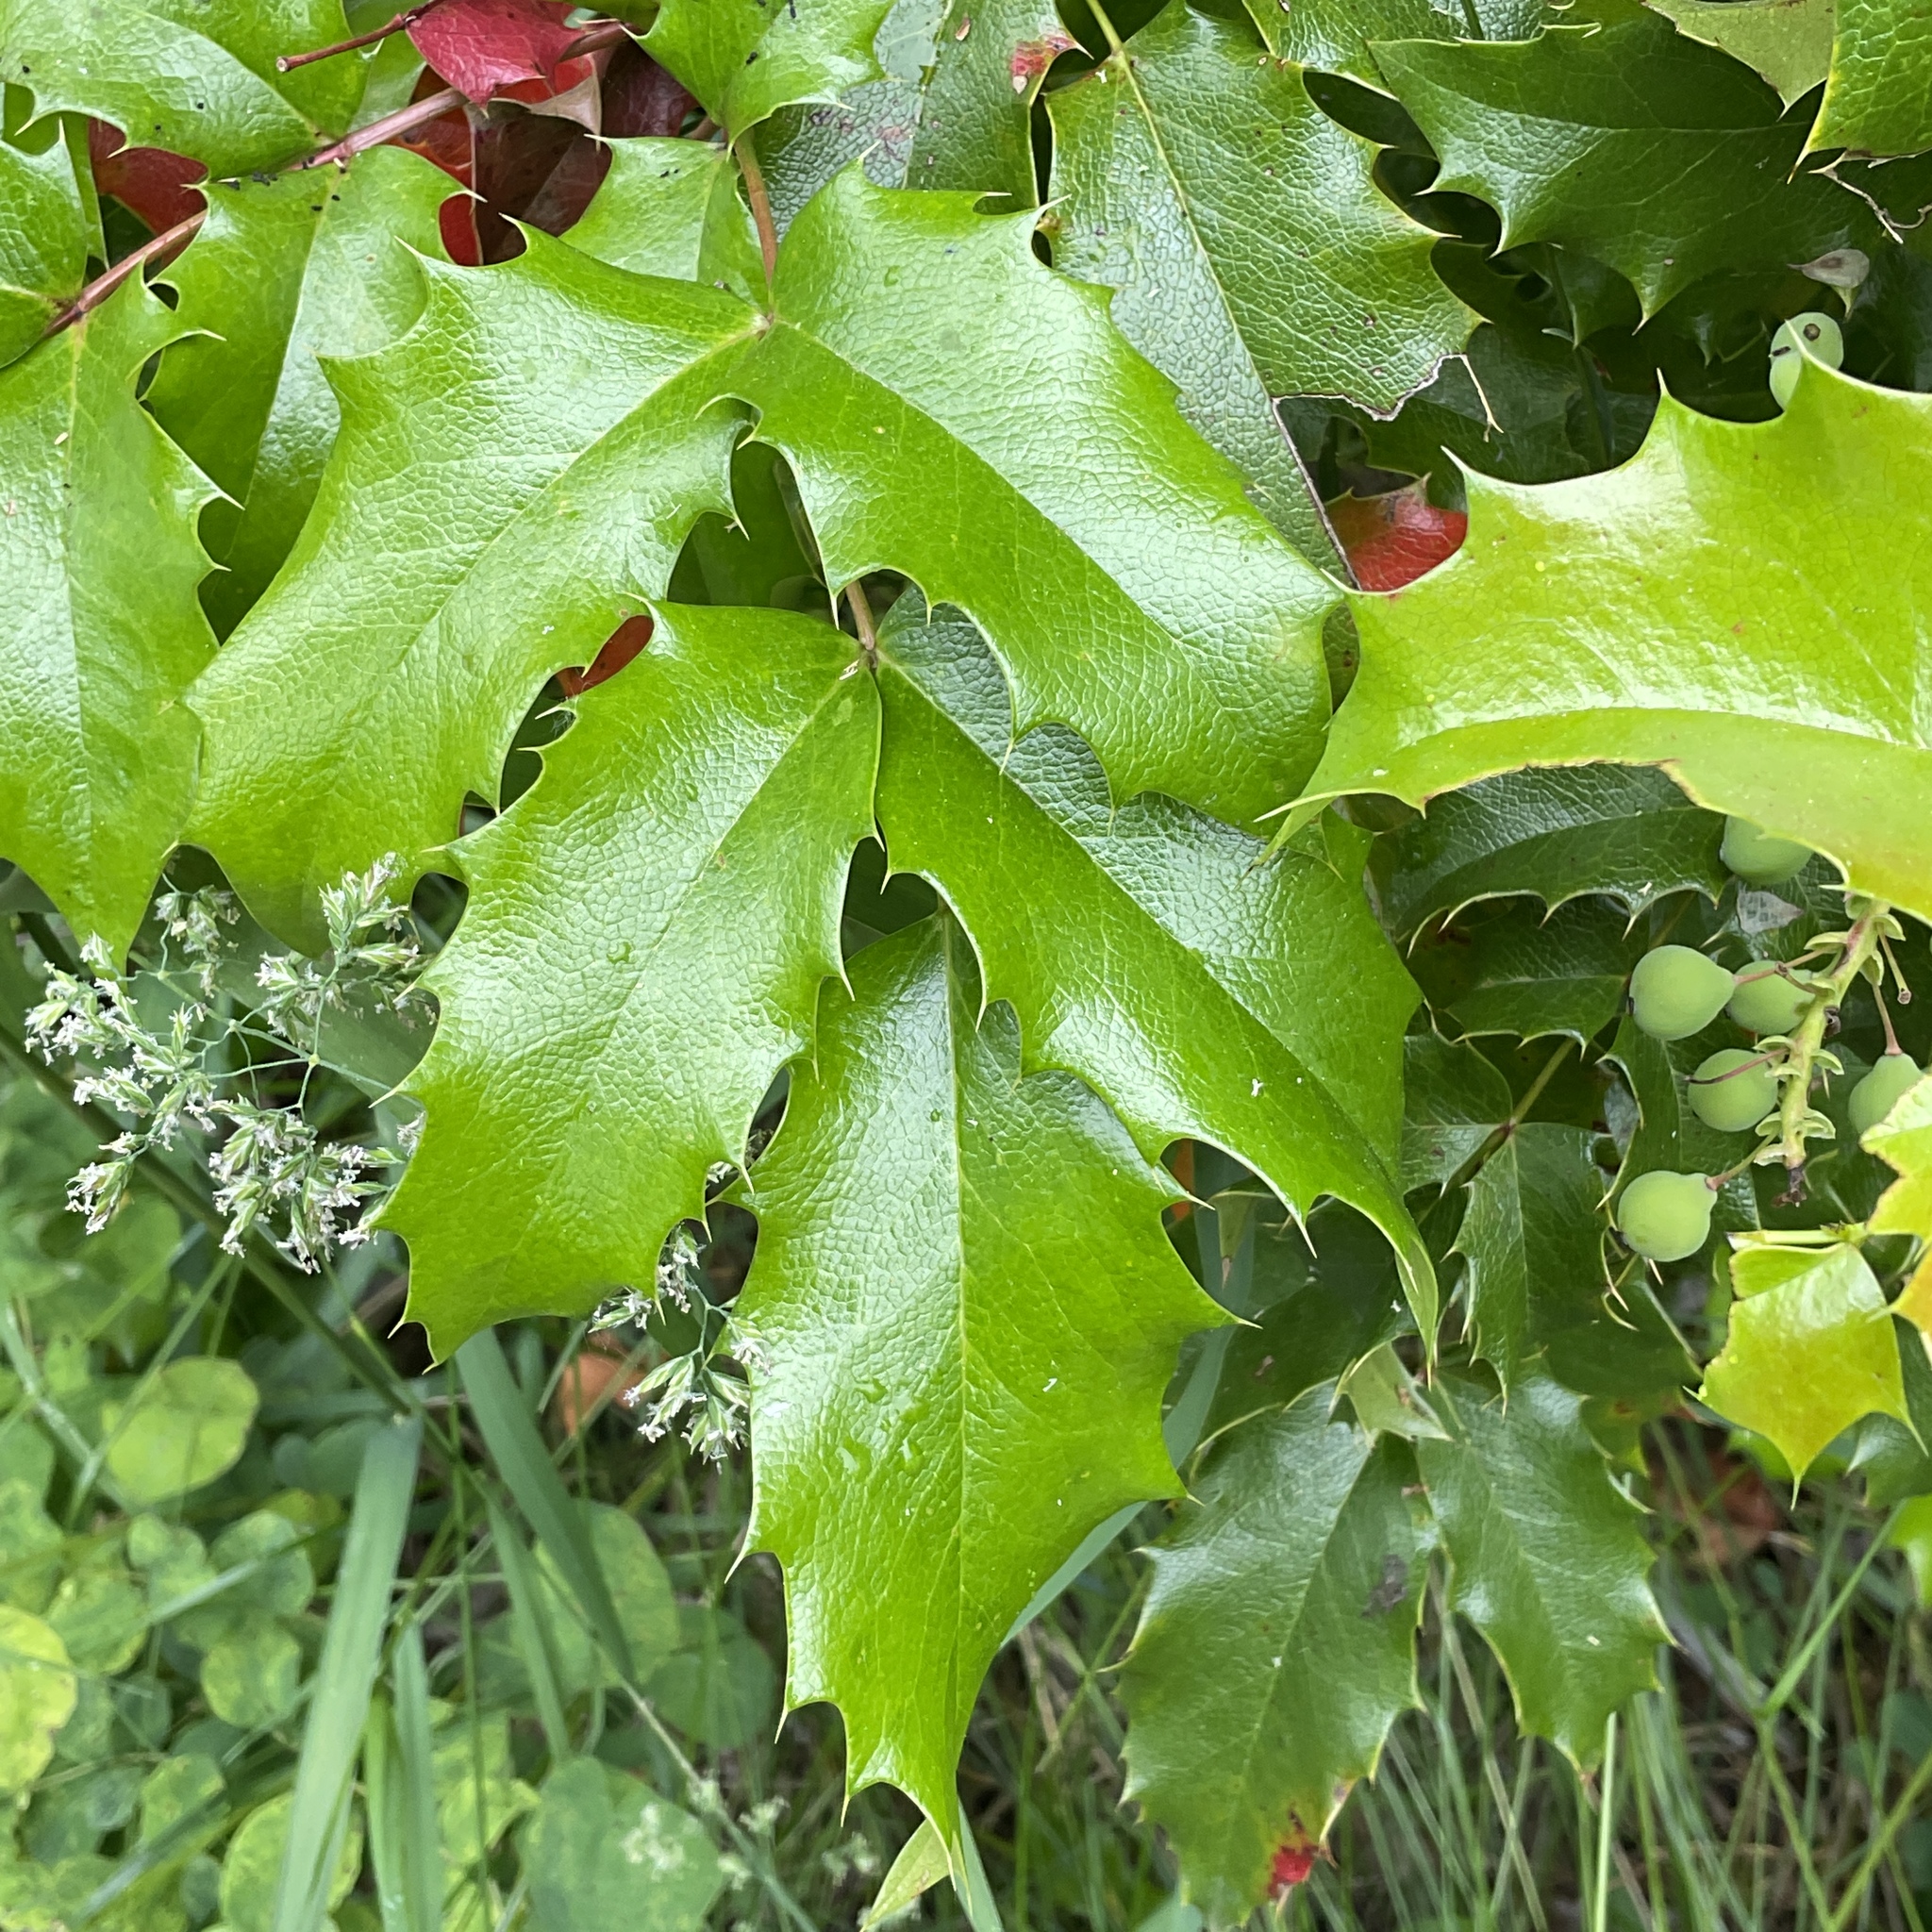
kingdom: Plantae
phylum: Tracheophyta
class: Magnoliopsida
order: Ranunculales
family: Berberidaceae
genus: Mahonia
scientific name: Mahonia aquifolium
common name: Oregon-grape
